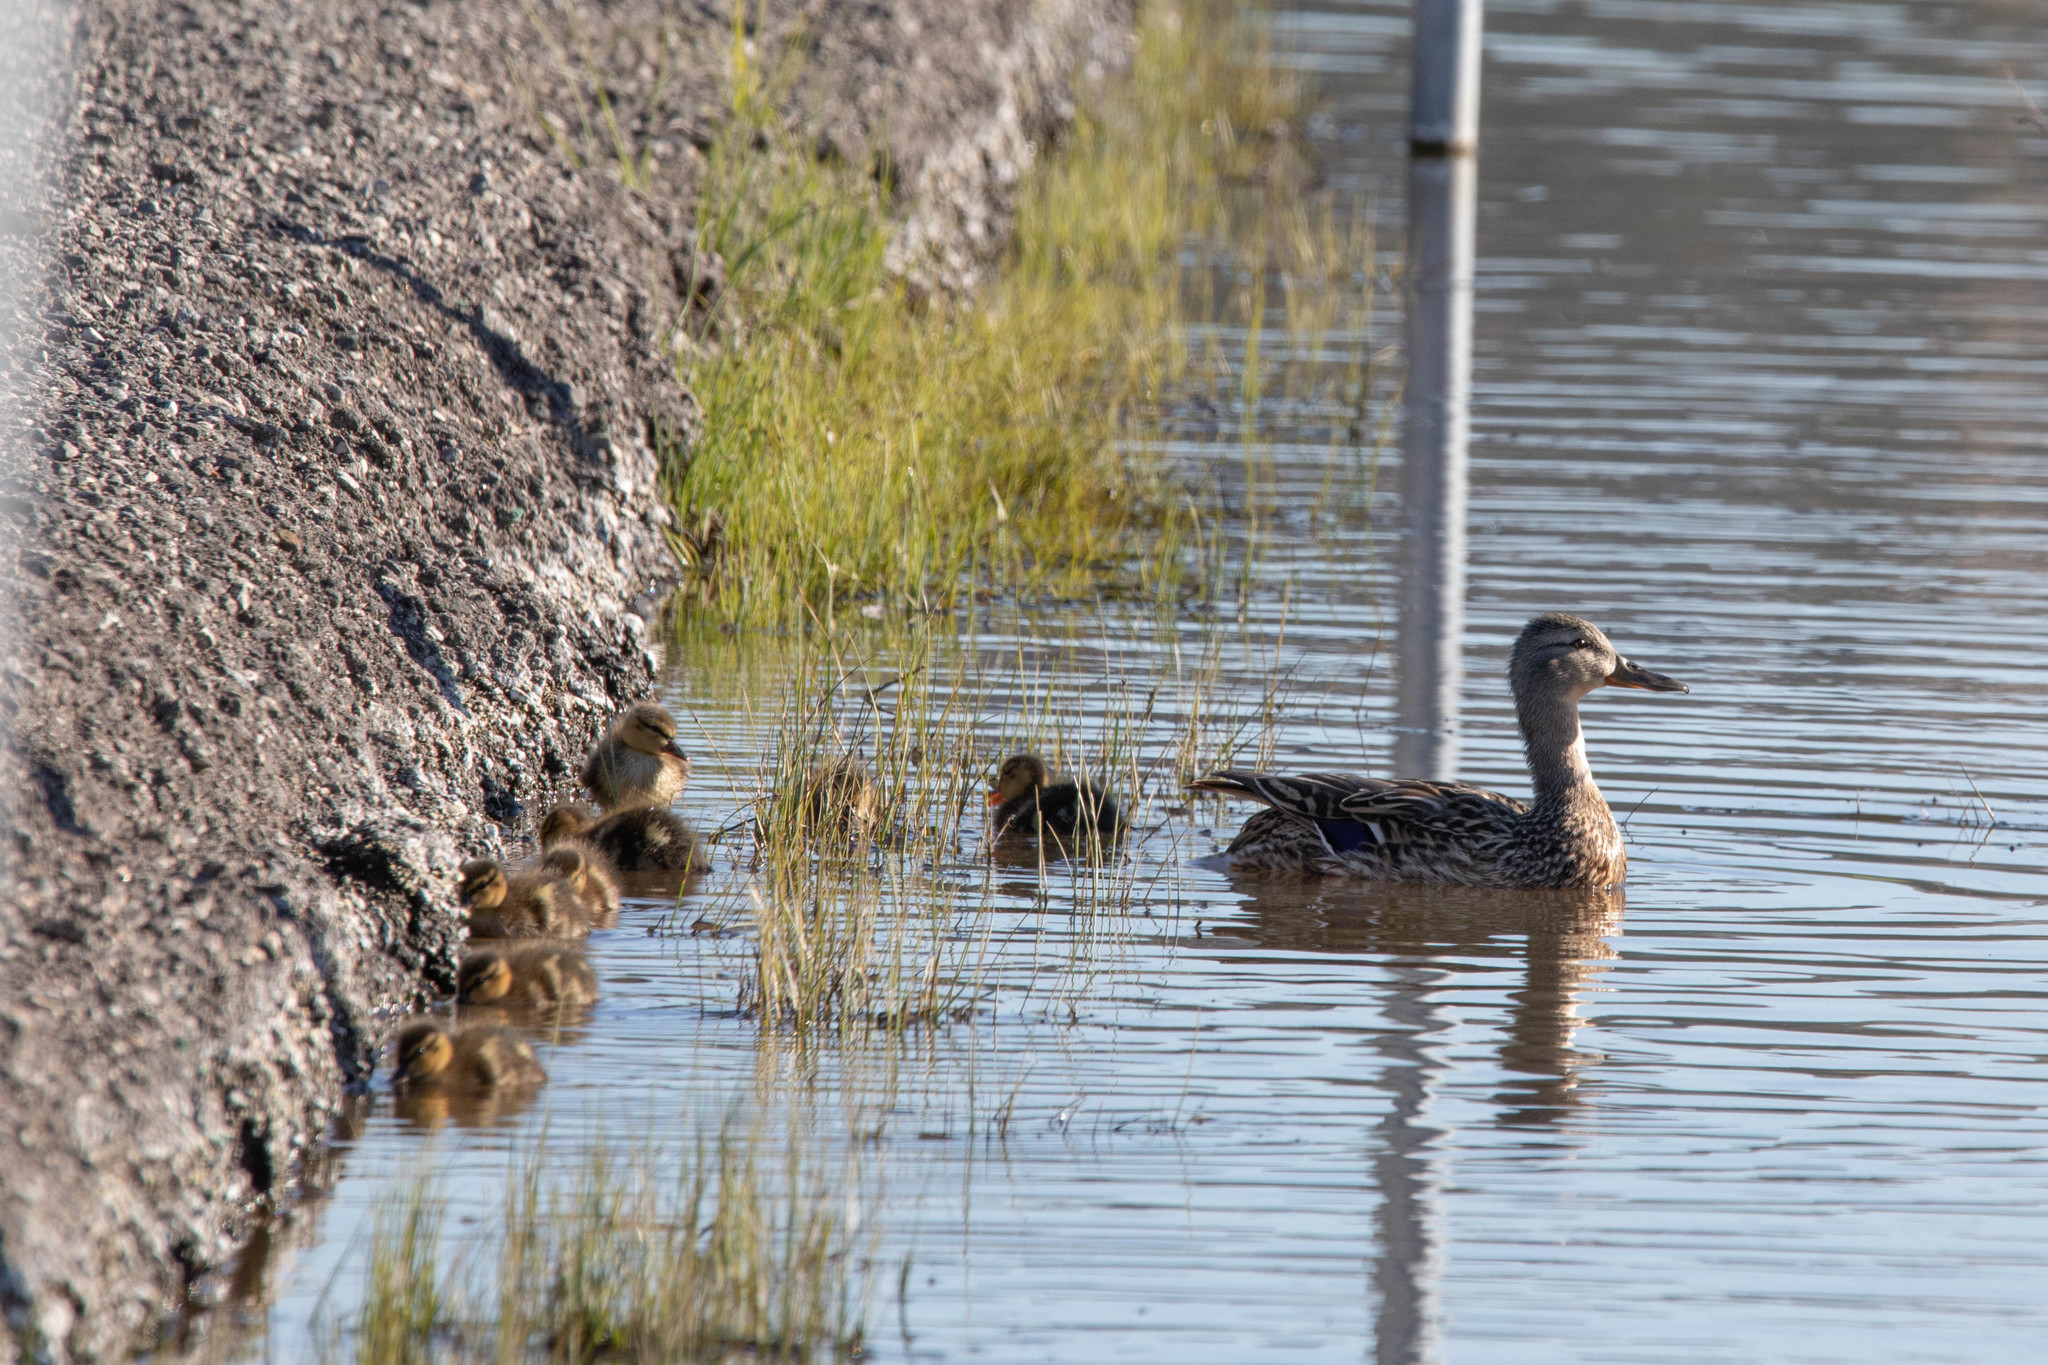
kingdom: Animalia
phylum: Chordata
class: Aves
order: Anseriformes
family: Anatidae
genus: Anas
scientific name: Anas platyrhynchos
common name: Mallard
